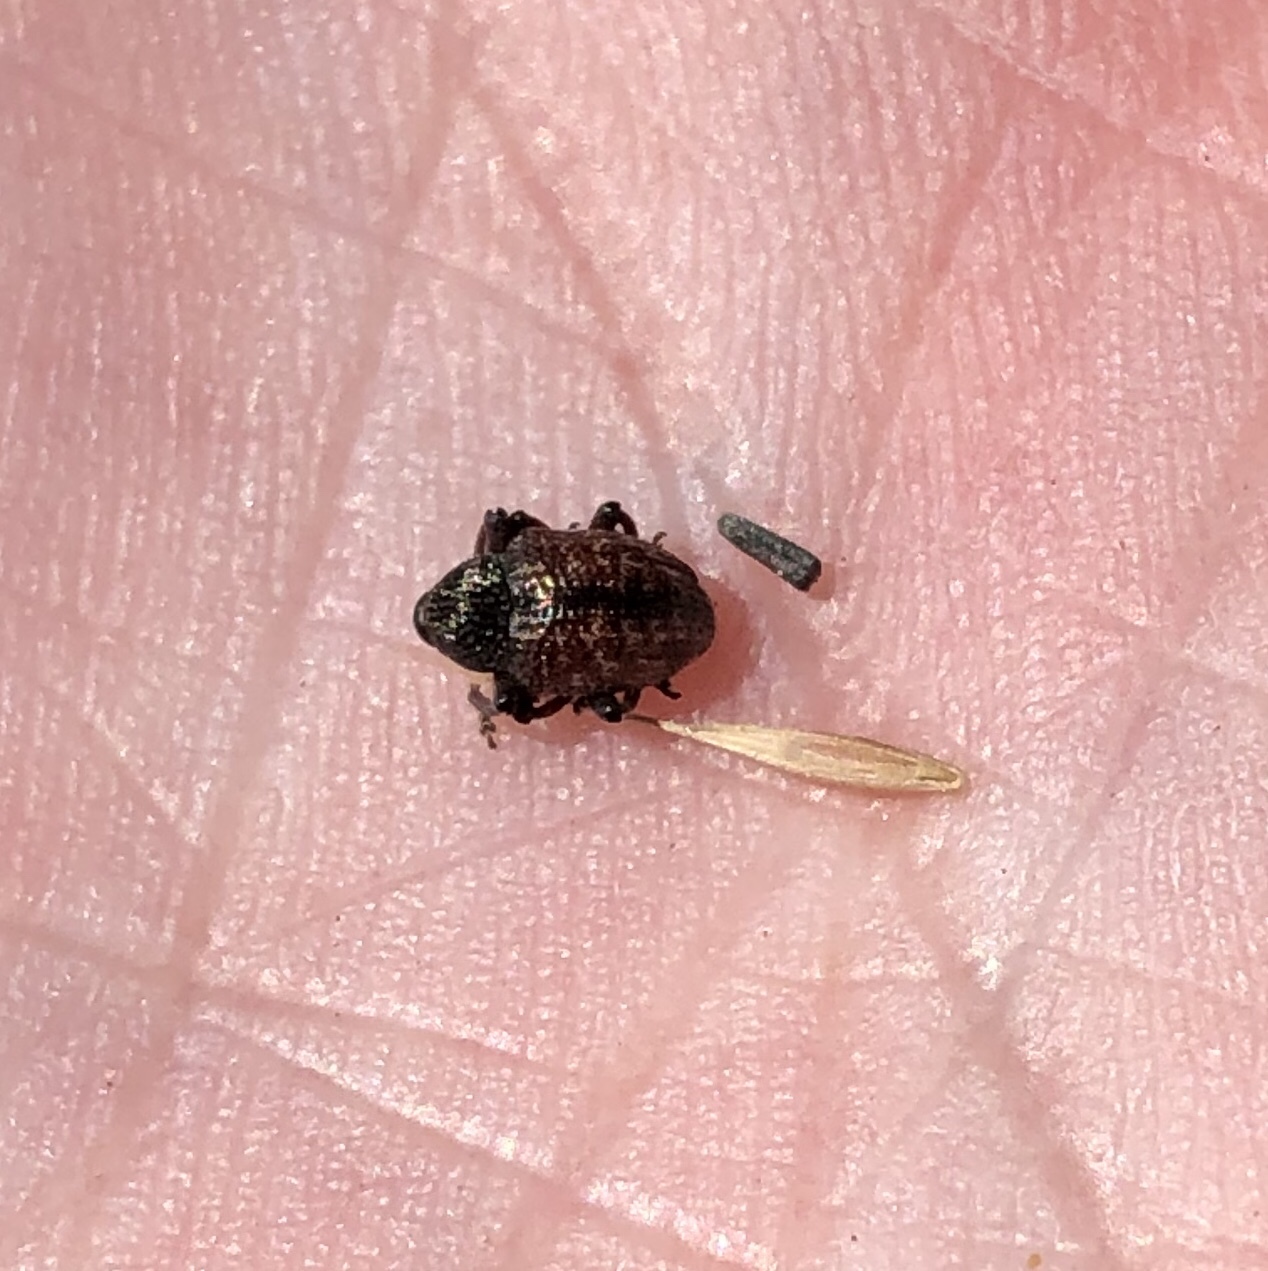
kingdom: Animalia
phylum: Arthropoda
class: Insecta
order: Coleoptera
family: Curculionidae
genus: Chalcodermus
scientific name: Chalcodermus collaris
